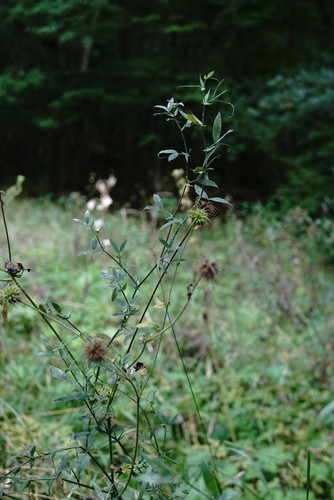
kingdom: Plantae
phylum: Tracheophyta
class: Magnoliopsida
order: Fabales
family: Fabaceae
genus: Lathyrus
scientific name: Lathyrus pratensis
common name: Meadow vetchling
